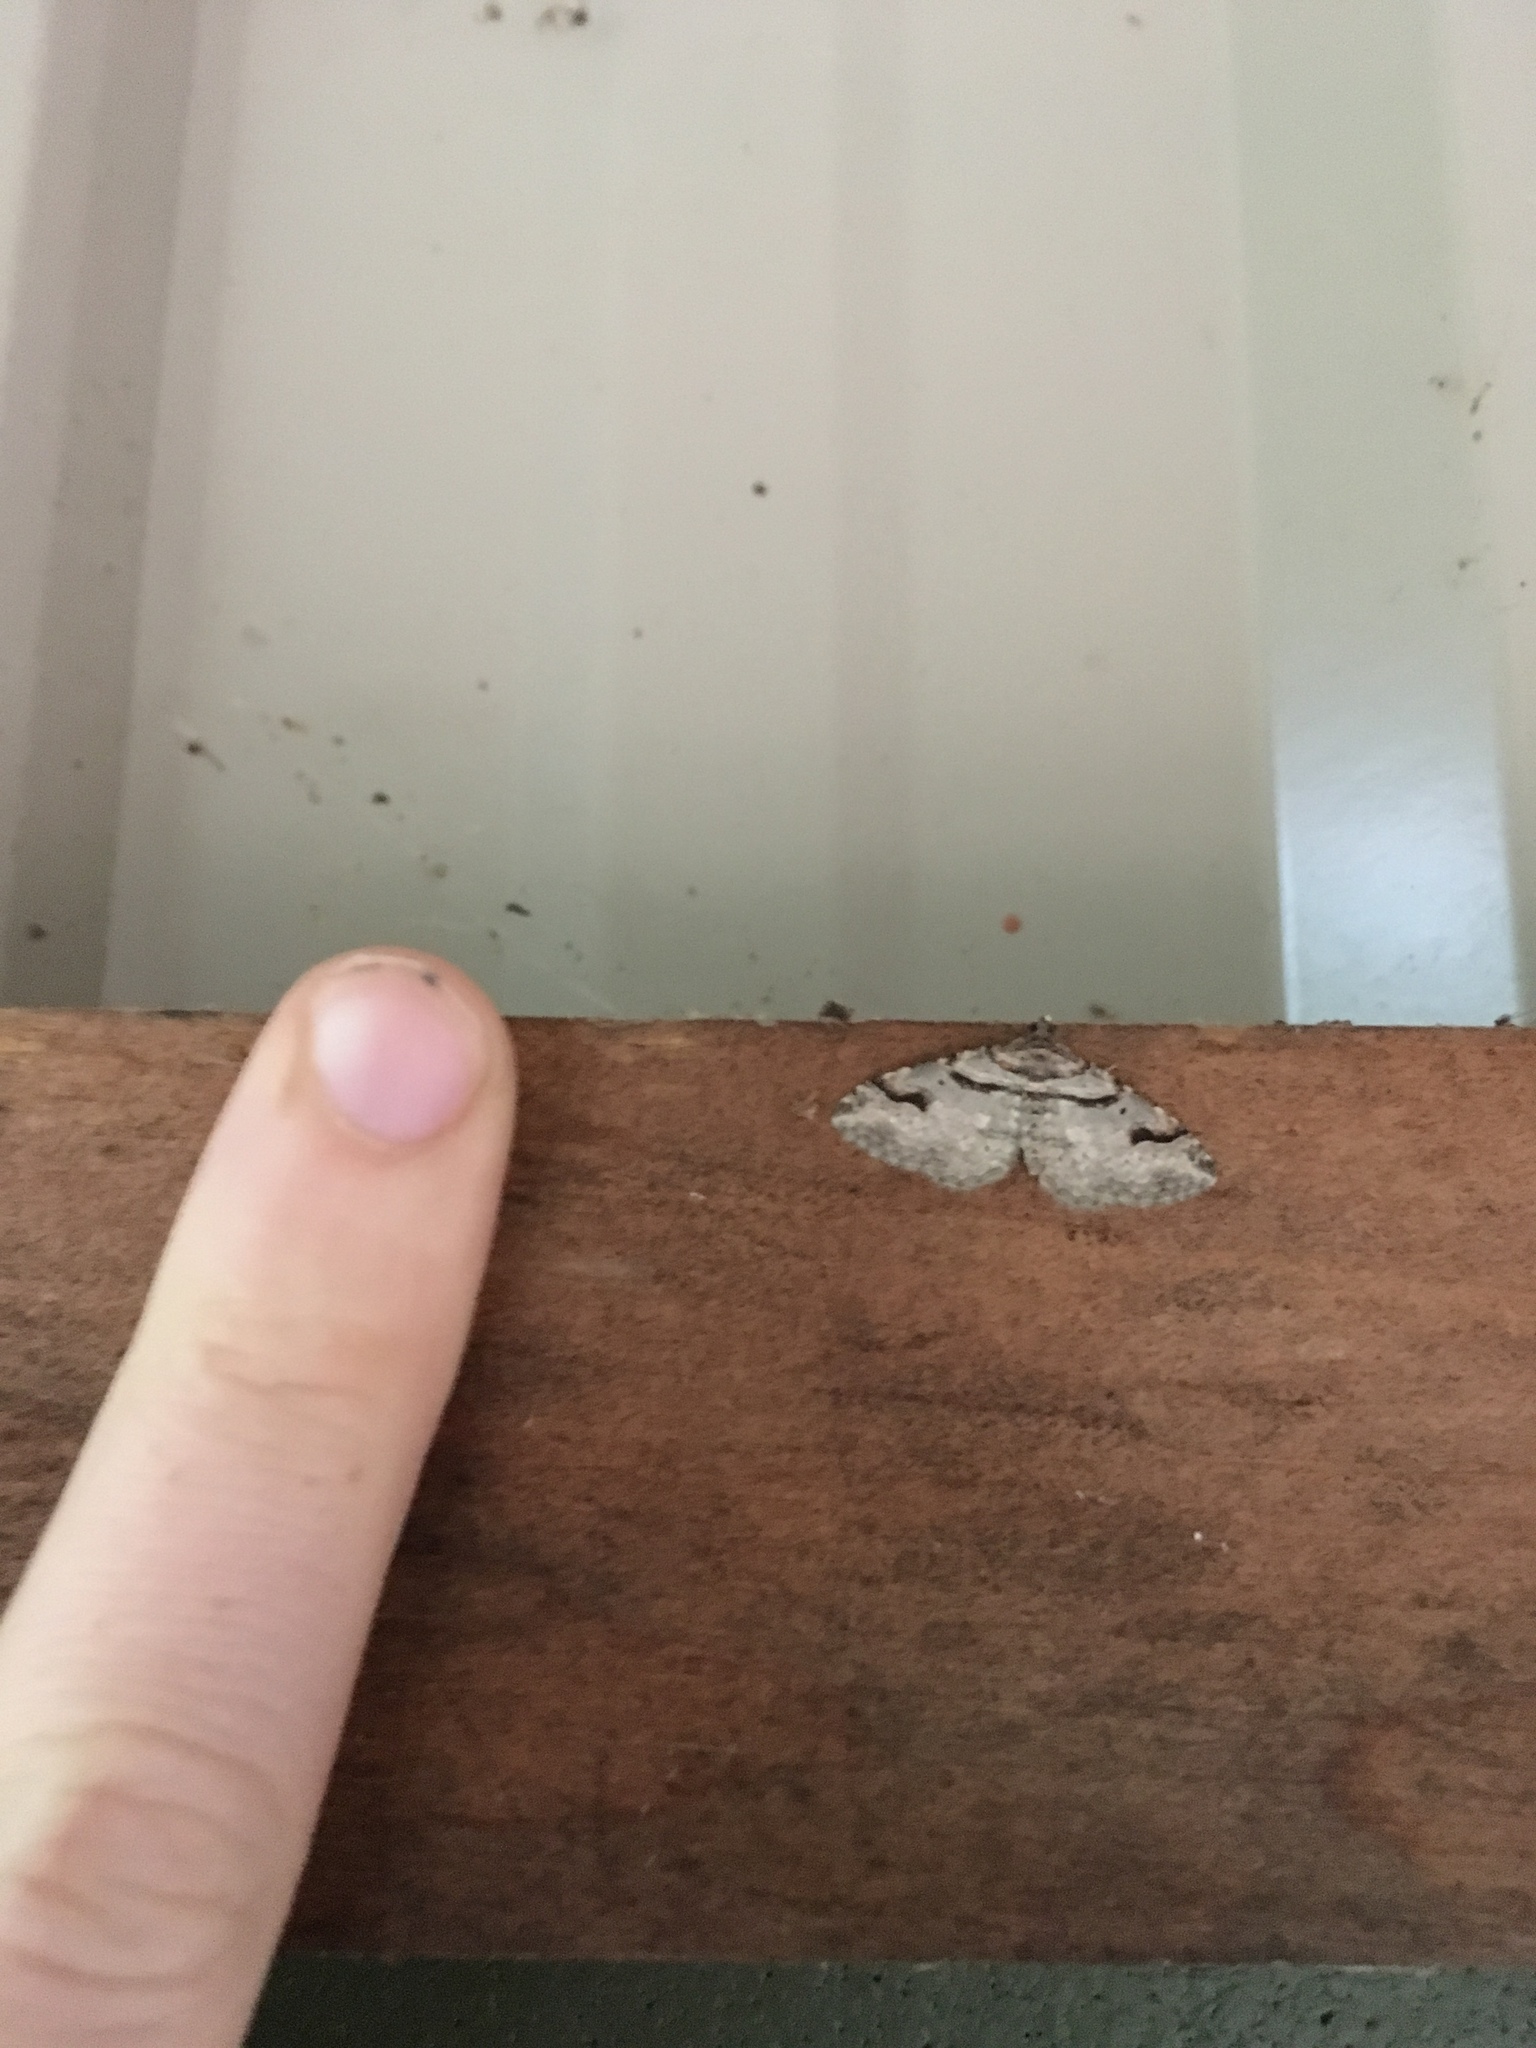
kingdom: Animalia
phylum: Arthropoda
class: Insecta
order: Lepidoptera
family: Geometridae
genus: Costaconvexa
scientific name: Costaconvexa centrostrigaria
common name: Bent-line carpet
